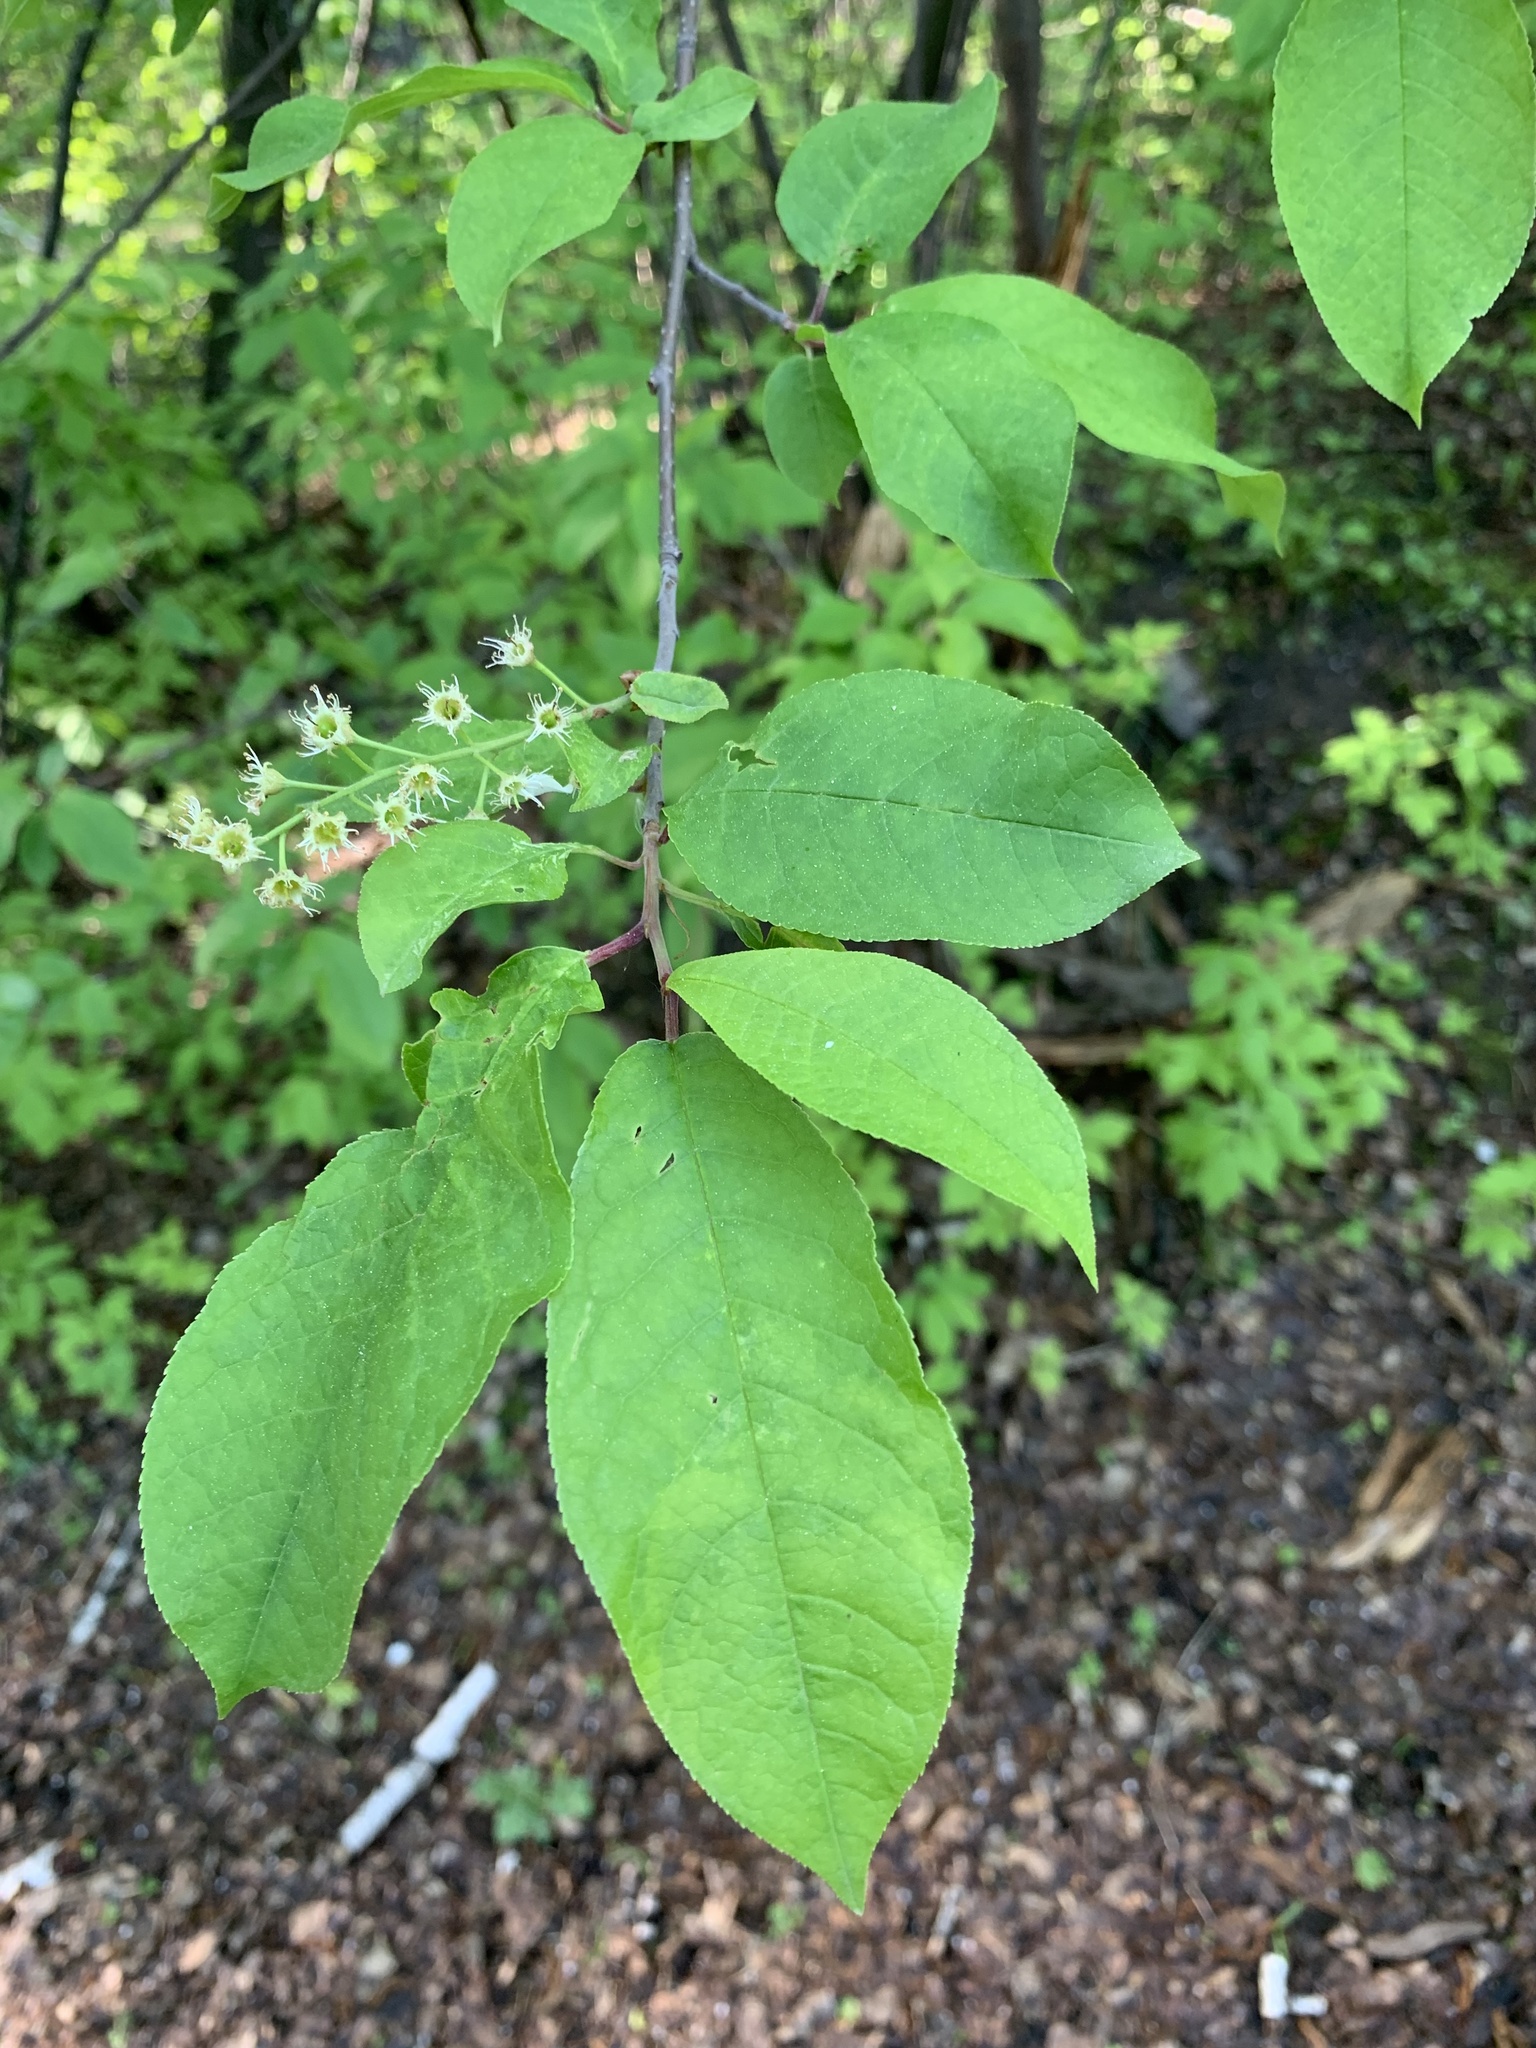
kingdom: Plantae
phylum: Tracheophyta
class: Magnoliopsida
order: Rosales
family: Rosaceae
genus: Prunus
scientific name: Prunus padus
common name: Bird cherry
